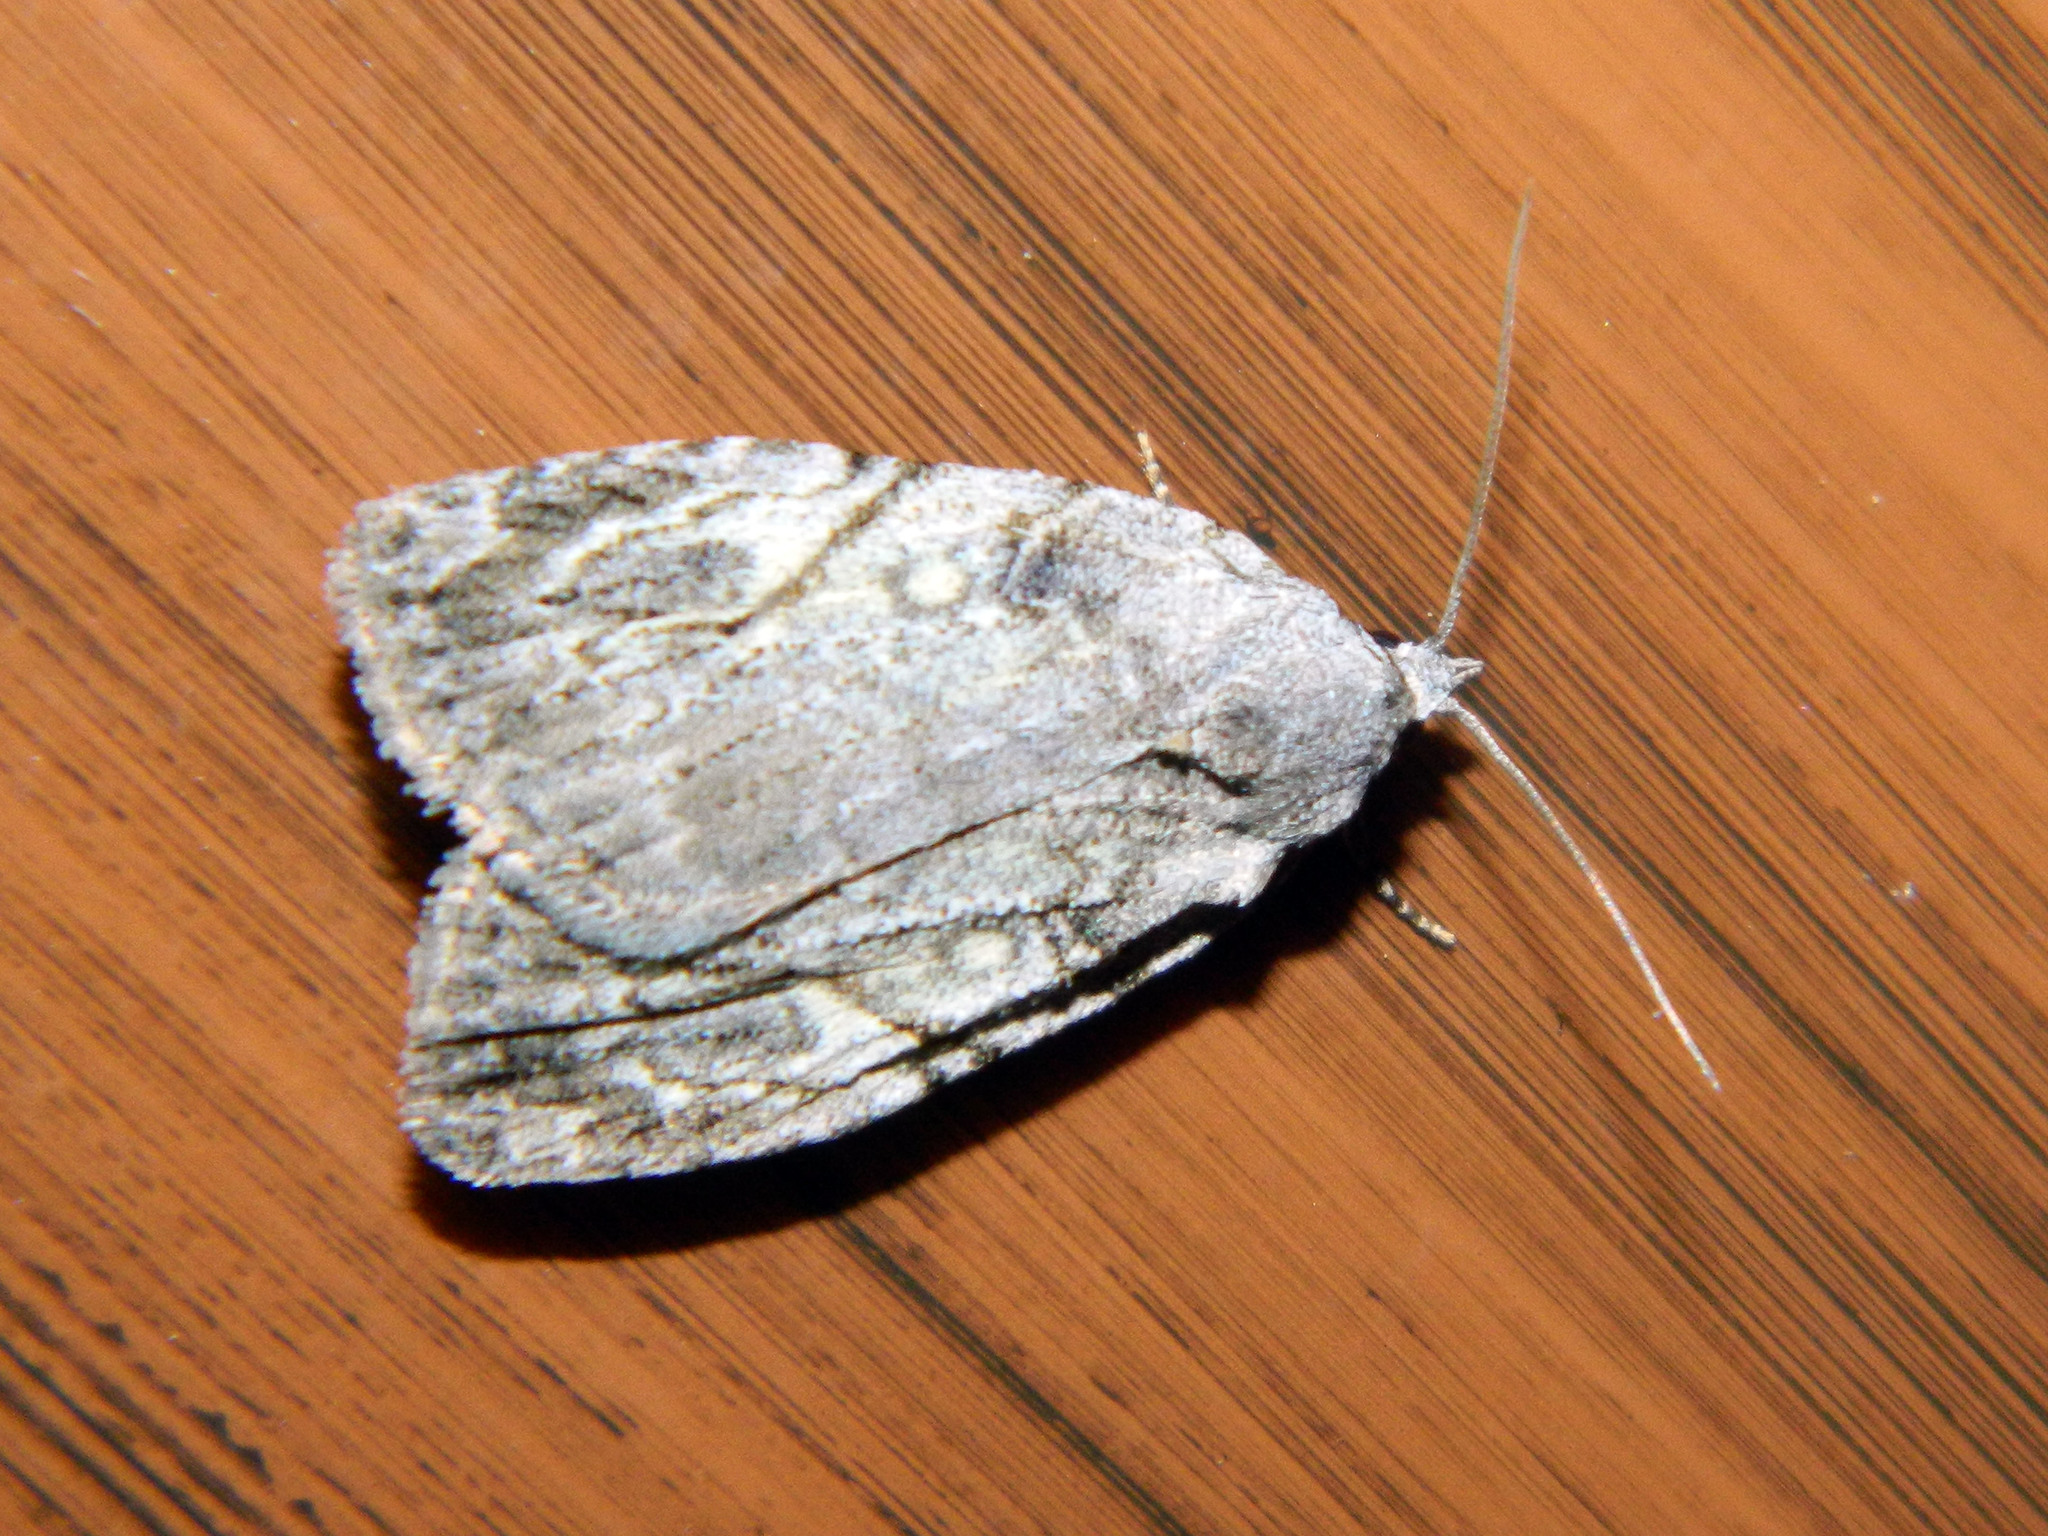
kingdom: Animalia
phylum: Arthropoda
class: Insecta
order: Lepidoptera
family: Noctuidae
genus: Balsa
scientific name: Balsa labecula
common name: White-blotched balsa moth
